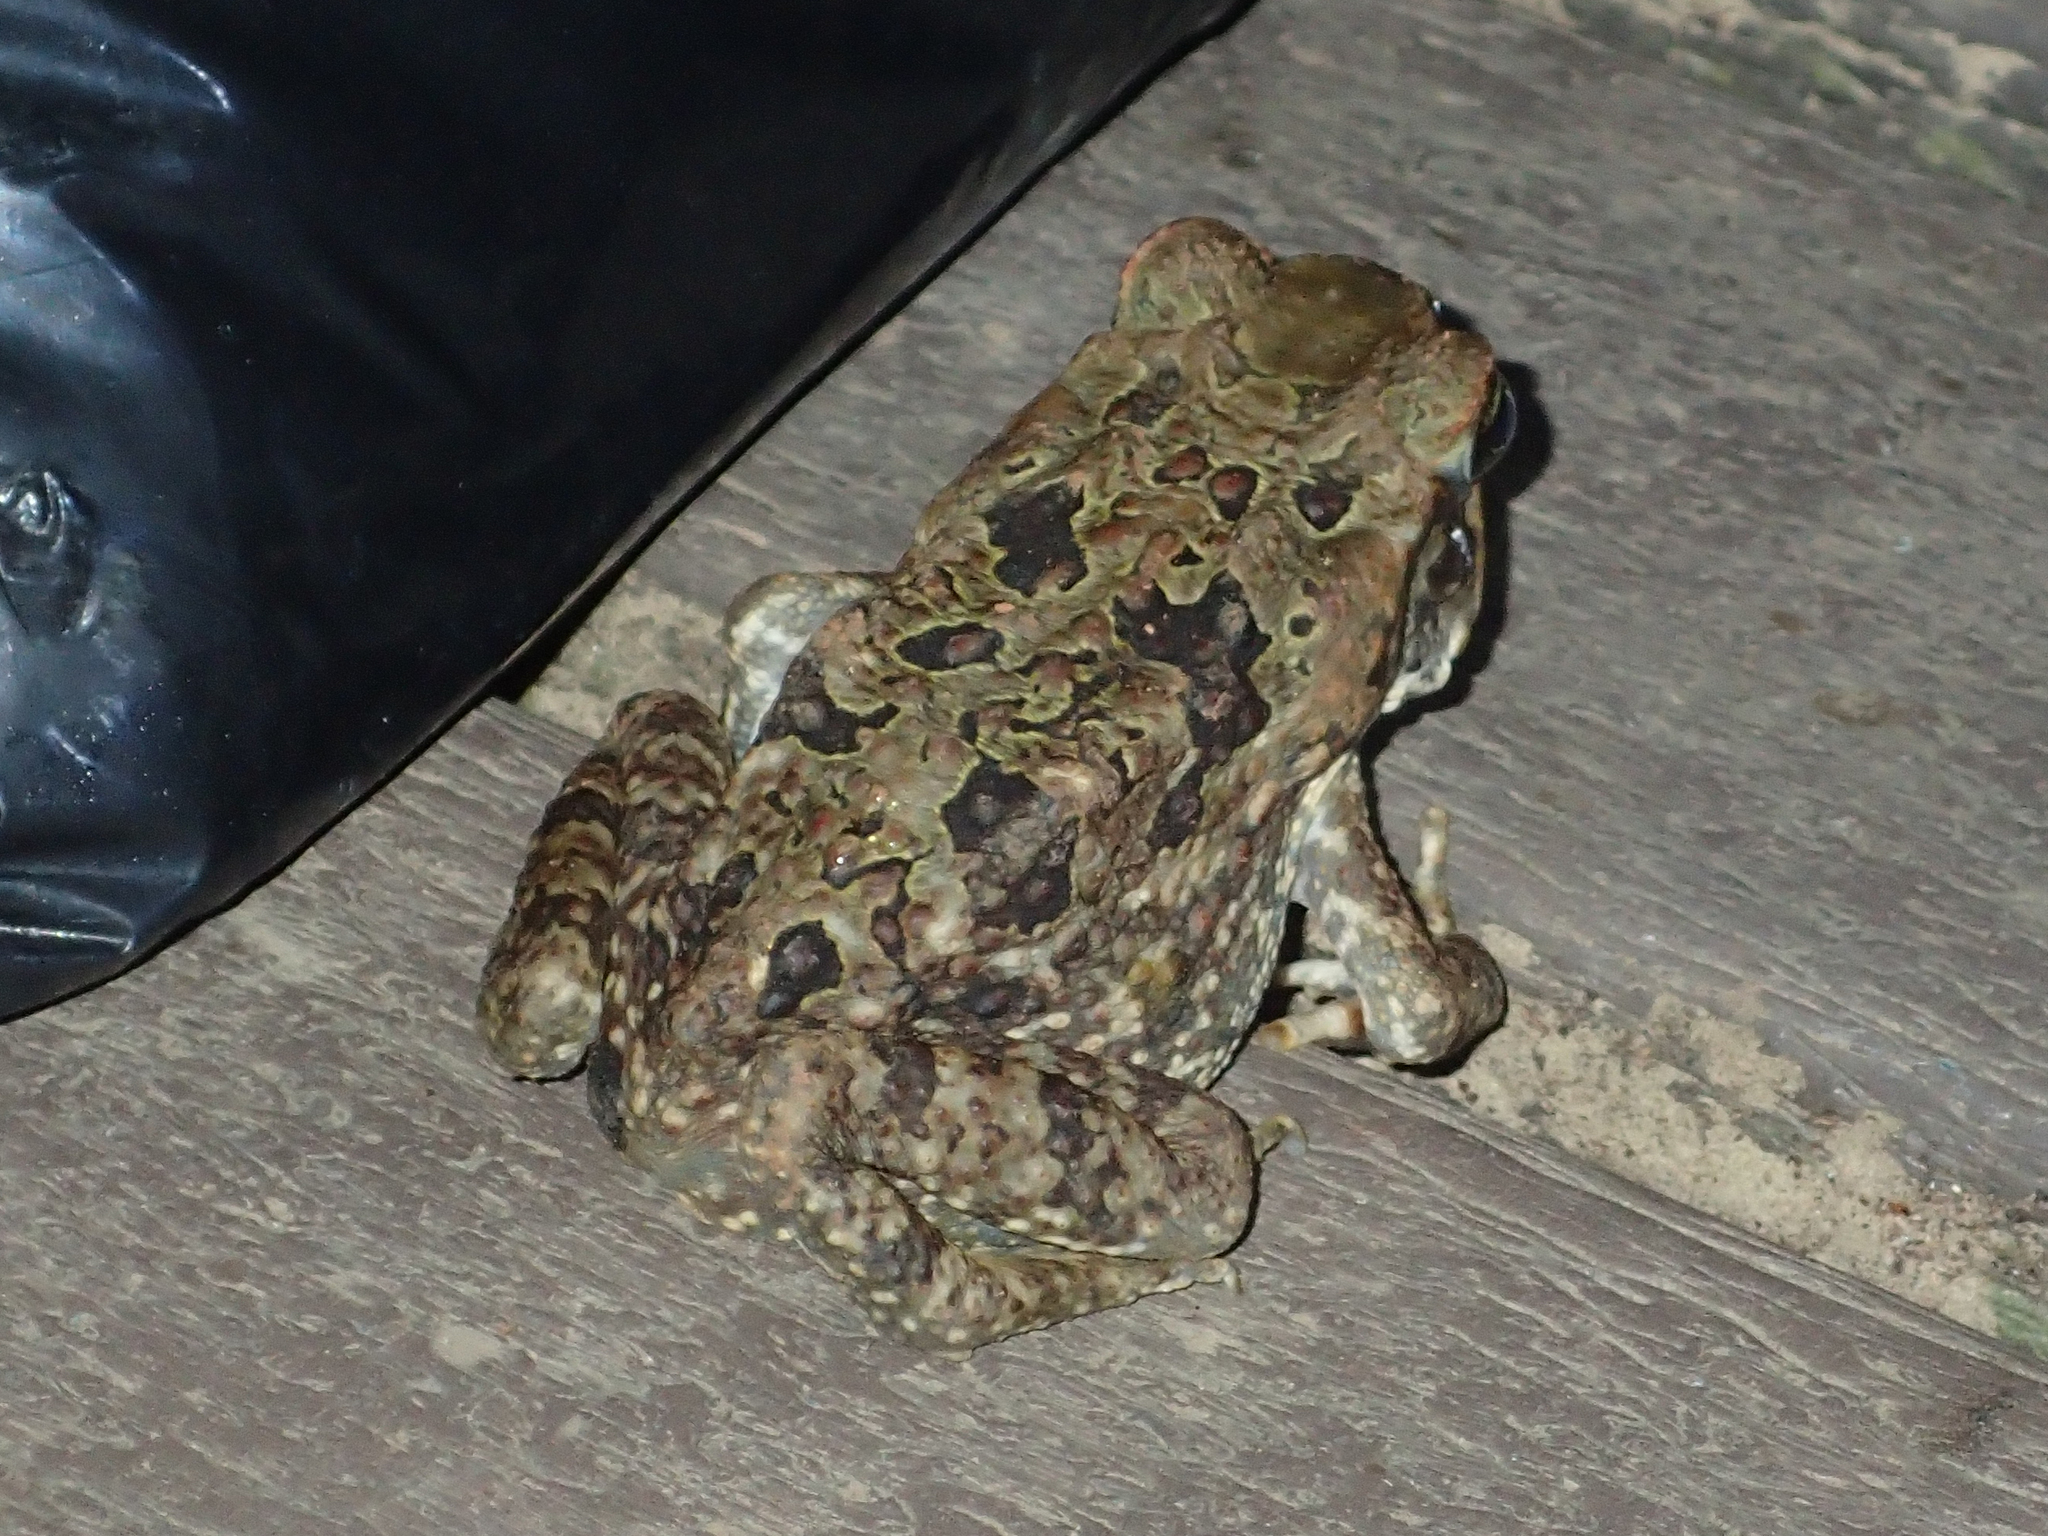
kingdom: Animalia
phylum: Chordata
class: Amphibia
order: Anura
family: Bufonidae
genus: Rhinella
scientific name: Rhinella marina
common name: Cane toad
